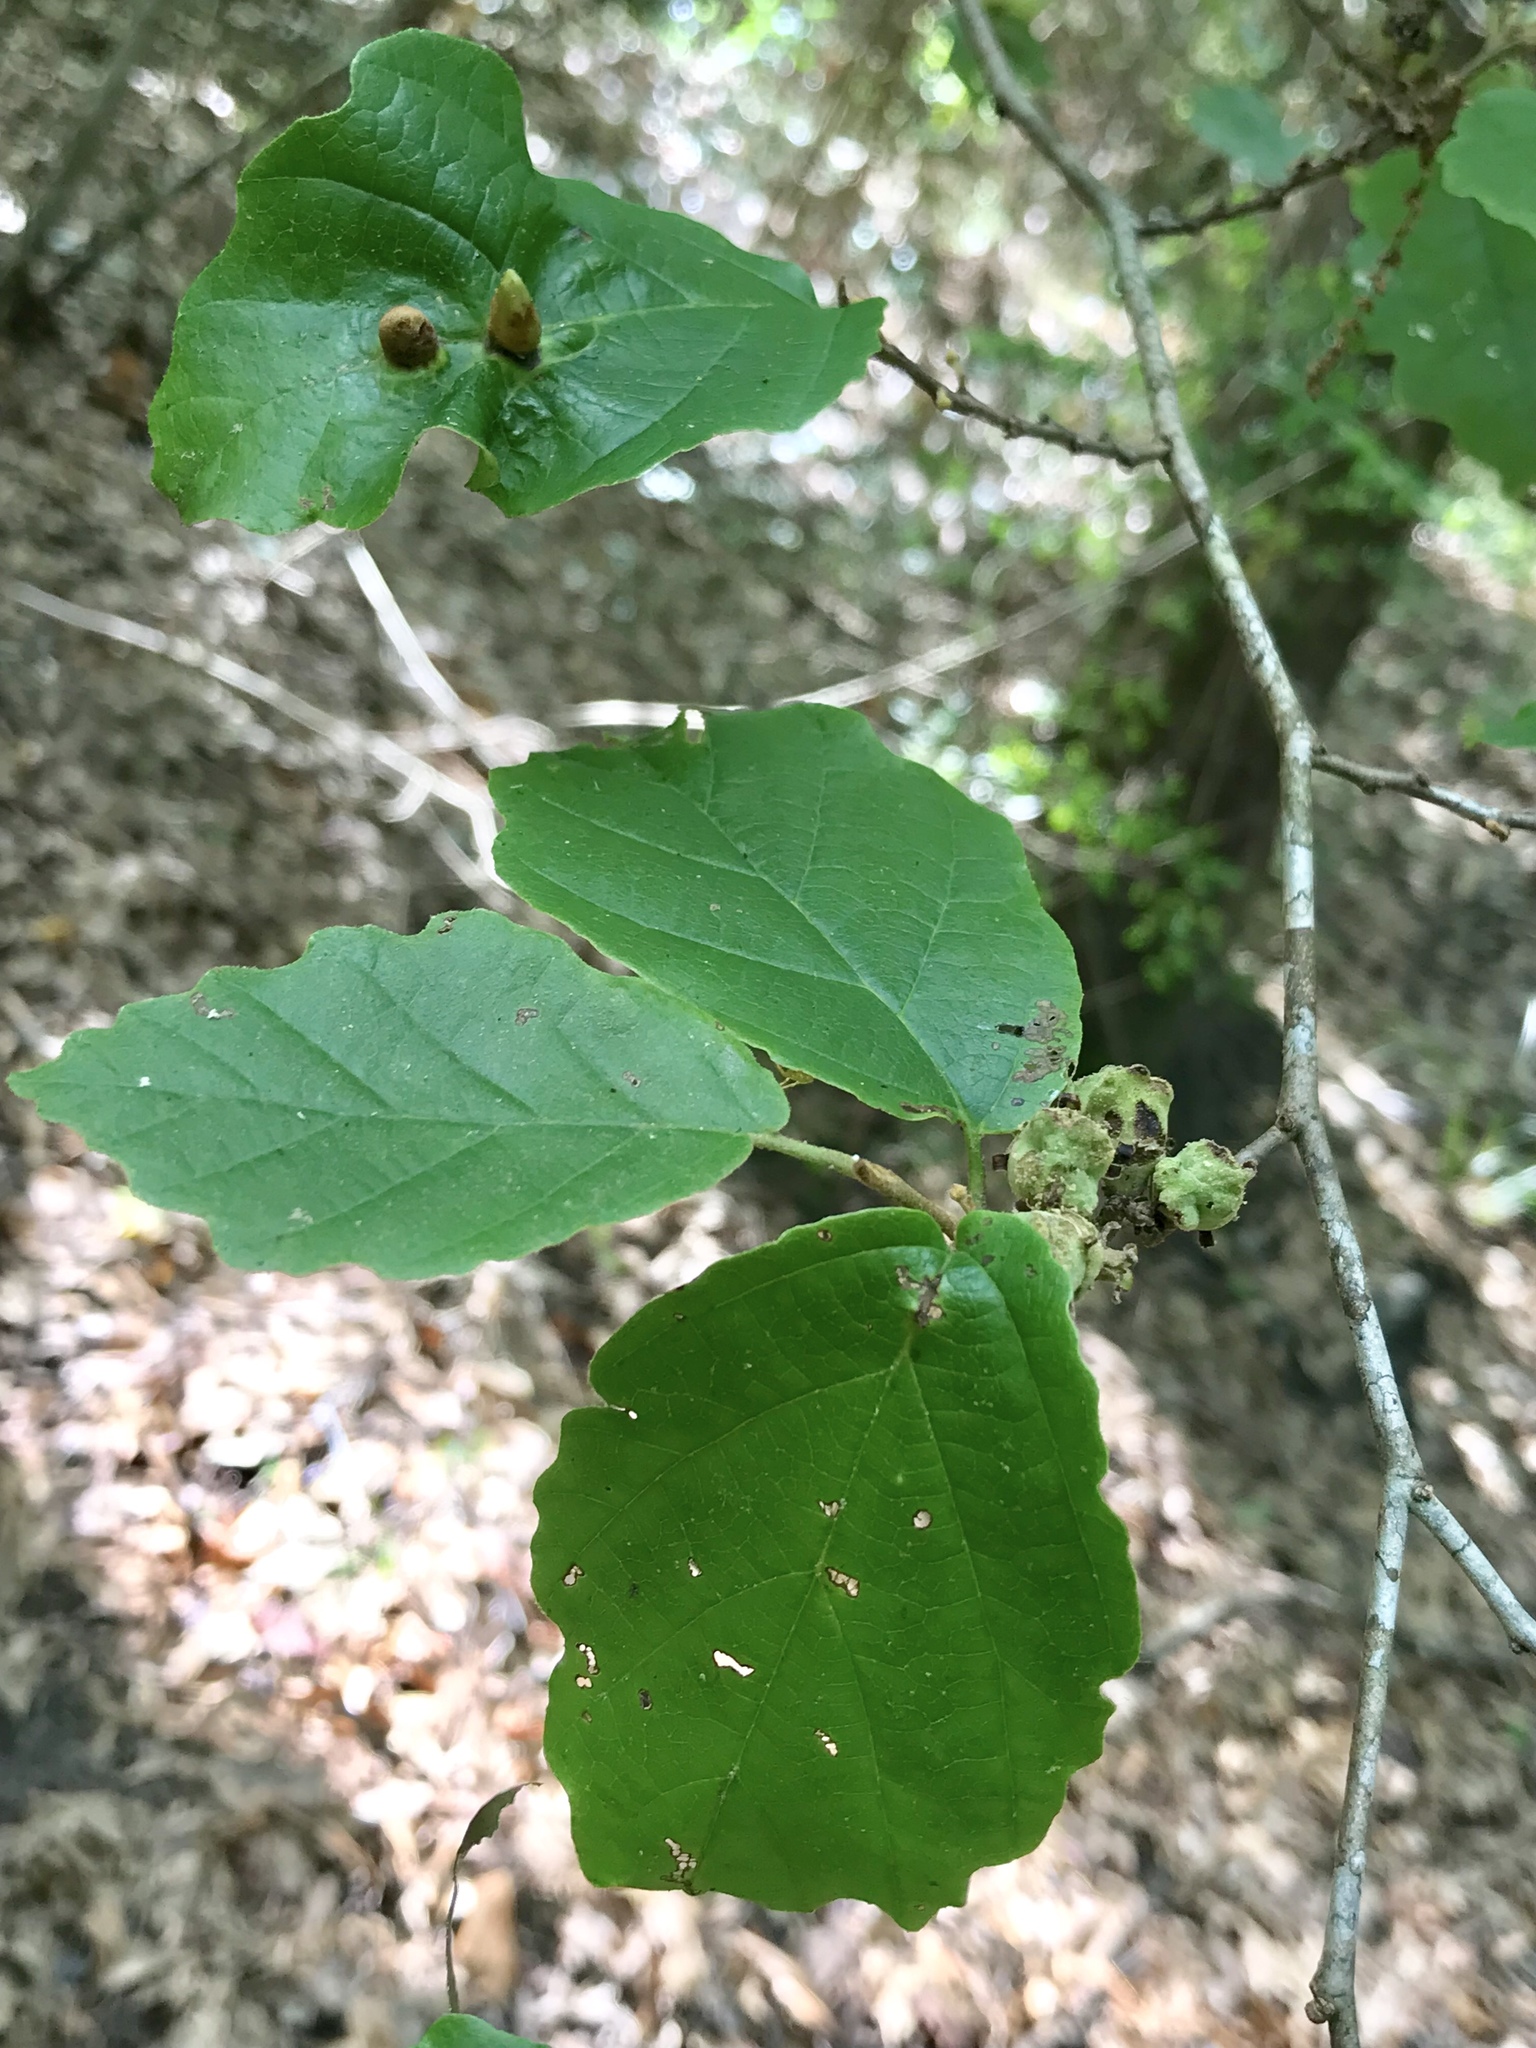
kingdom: Plantae
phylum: Tracheophyta
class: Magnoliopsida
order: Saxifragales
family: Hamamelidaceae
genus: Hamamelis
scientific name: Hamamelis virginiana
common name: Witch-hazel
